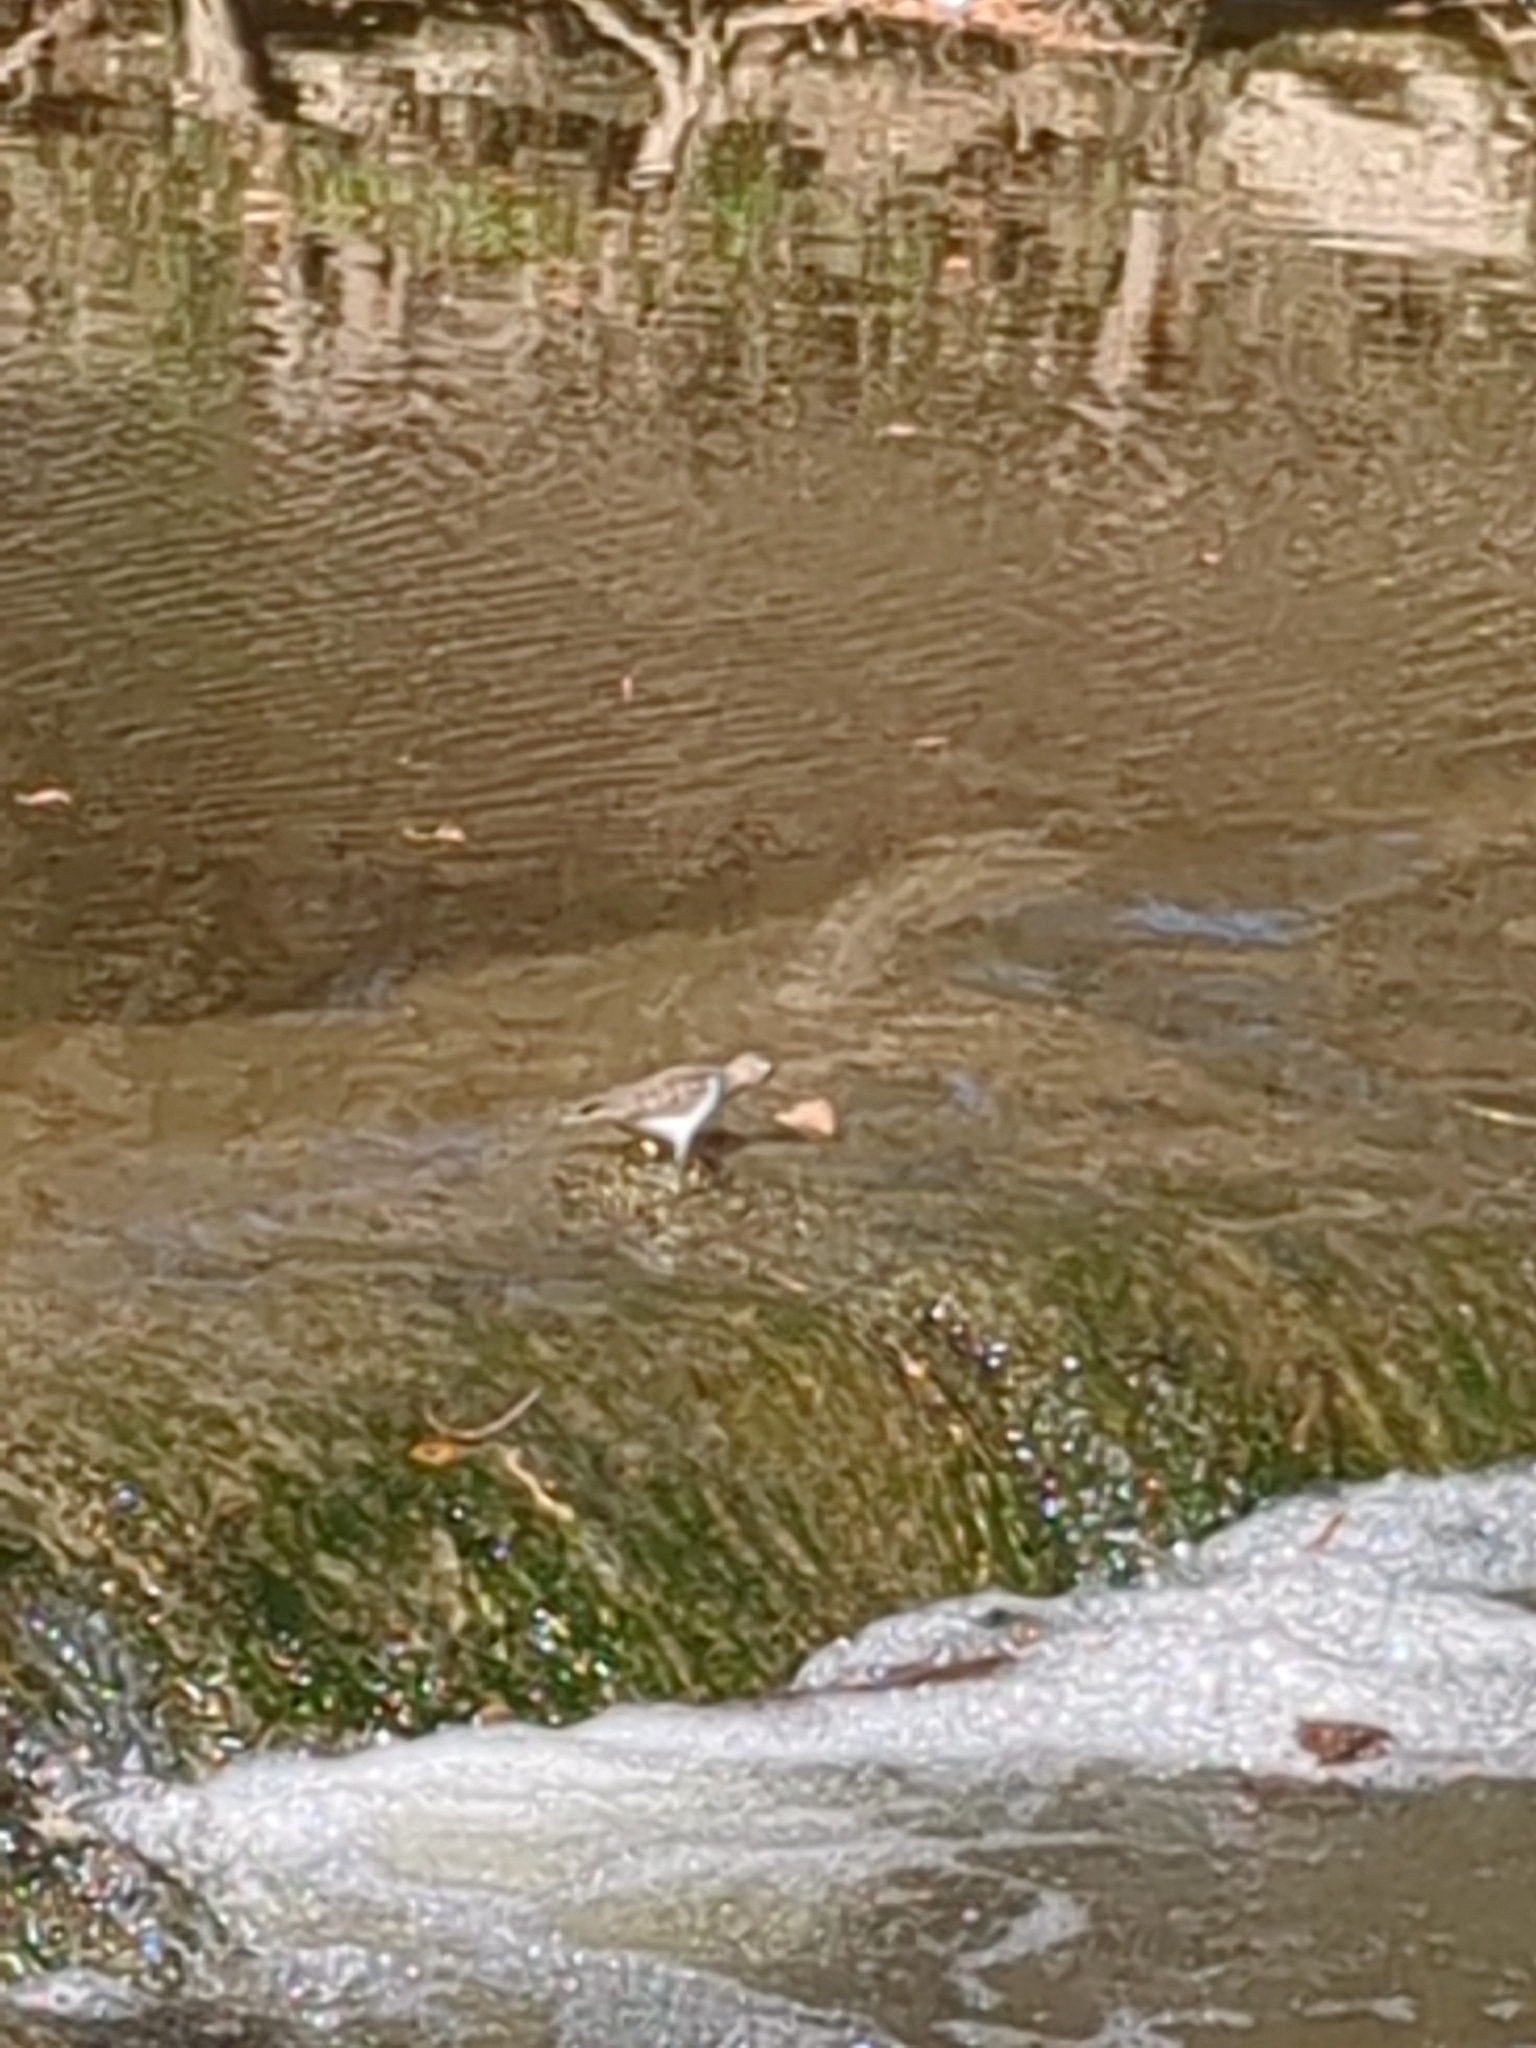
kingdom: Animalia
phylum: Chordata
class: Aves
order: Charadriiformes
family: Scolopacidae
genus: Actitis
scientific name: Actitis macularius
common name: Spotted sandpiper
